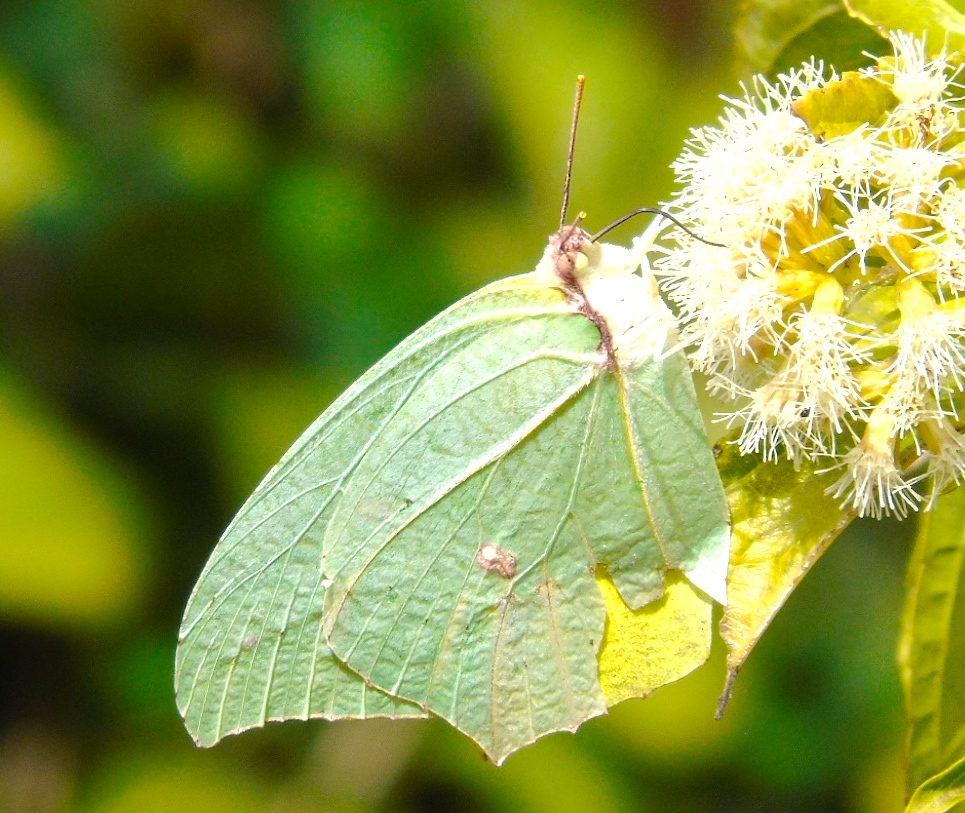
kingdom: Animalia
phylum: Arthropoda
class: Insecta
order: Lepidoptera
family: Pieridae
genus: Anteos
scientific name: Anteos maerula
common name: Angled sulphur
